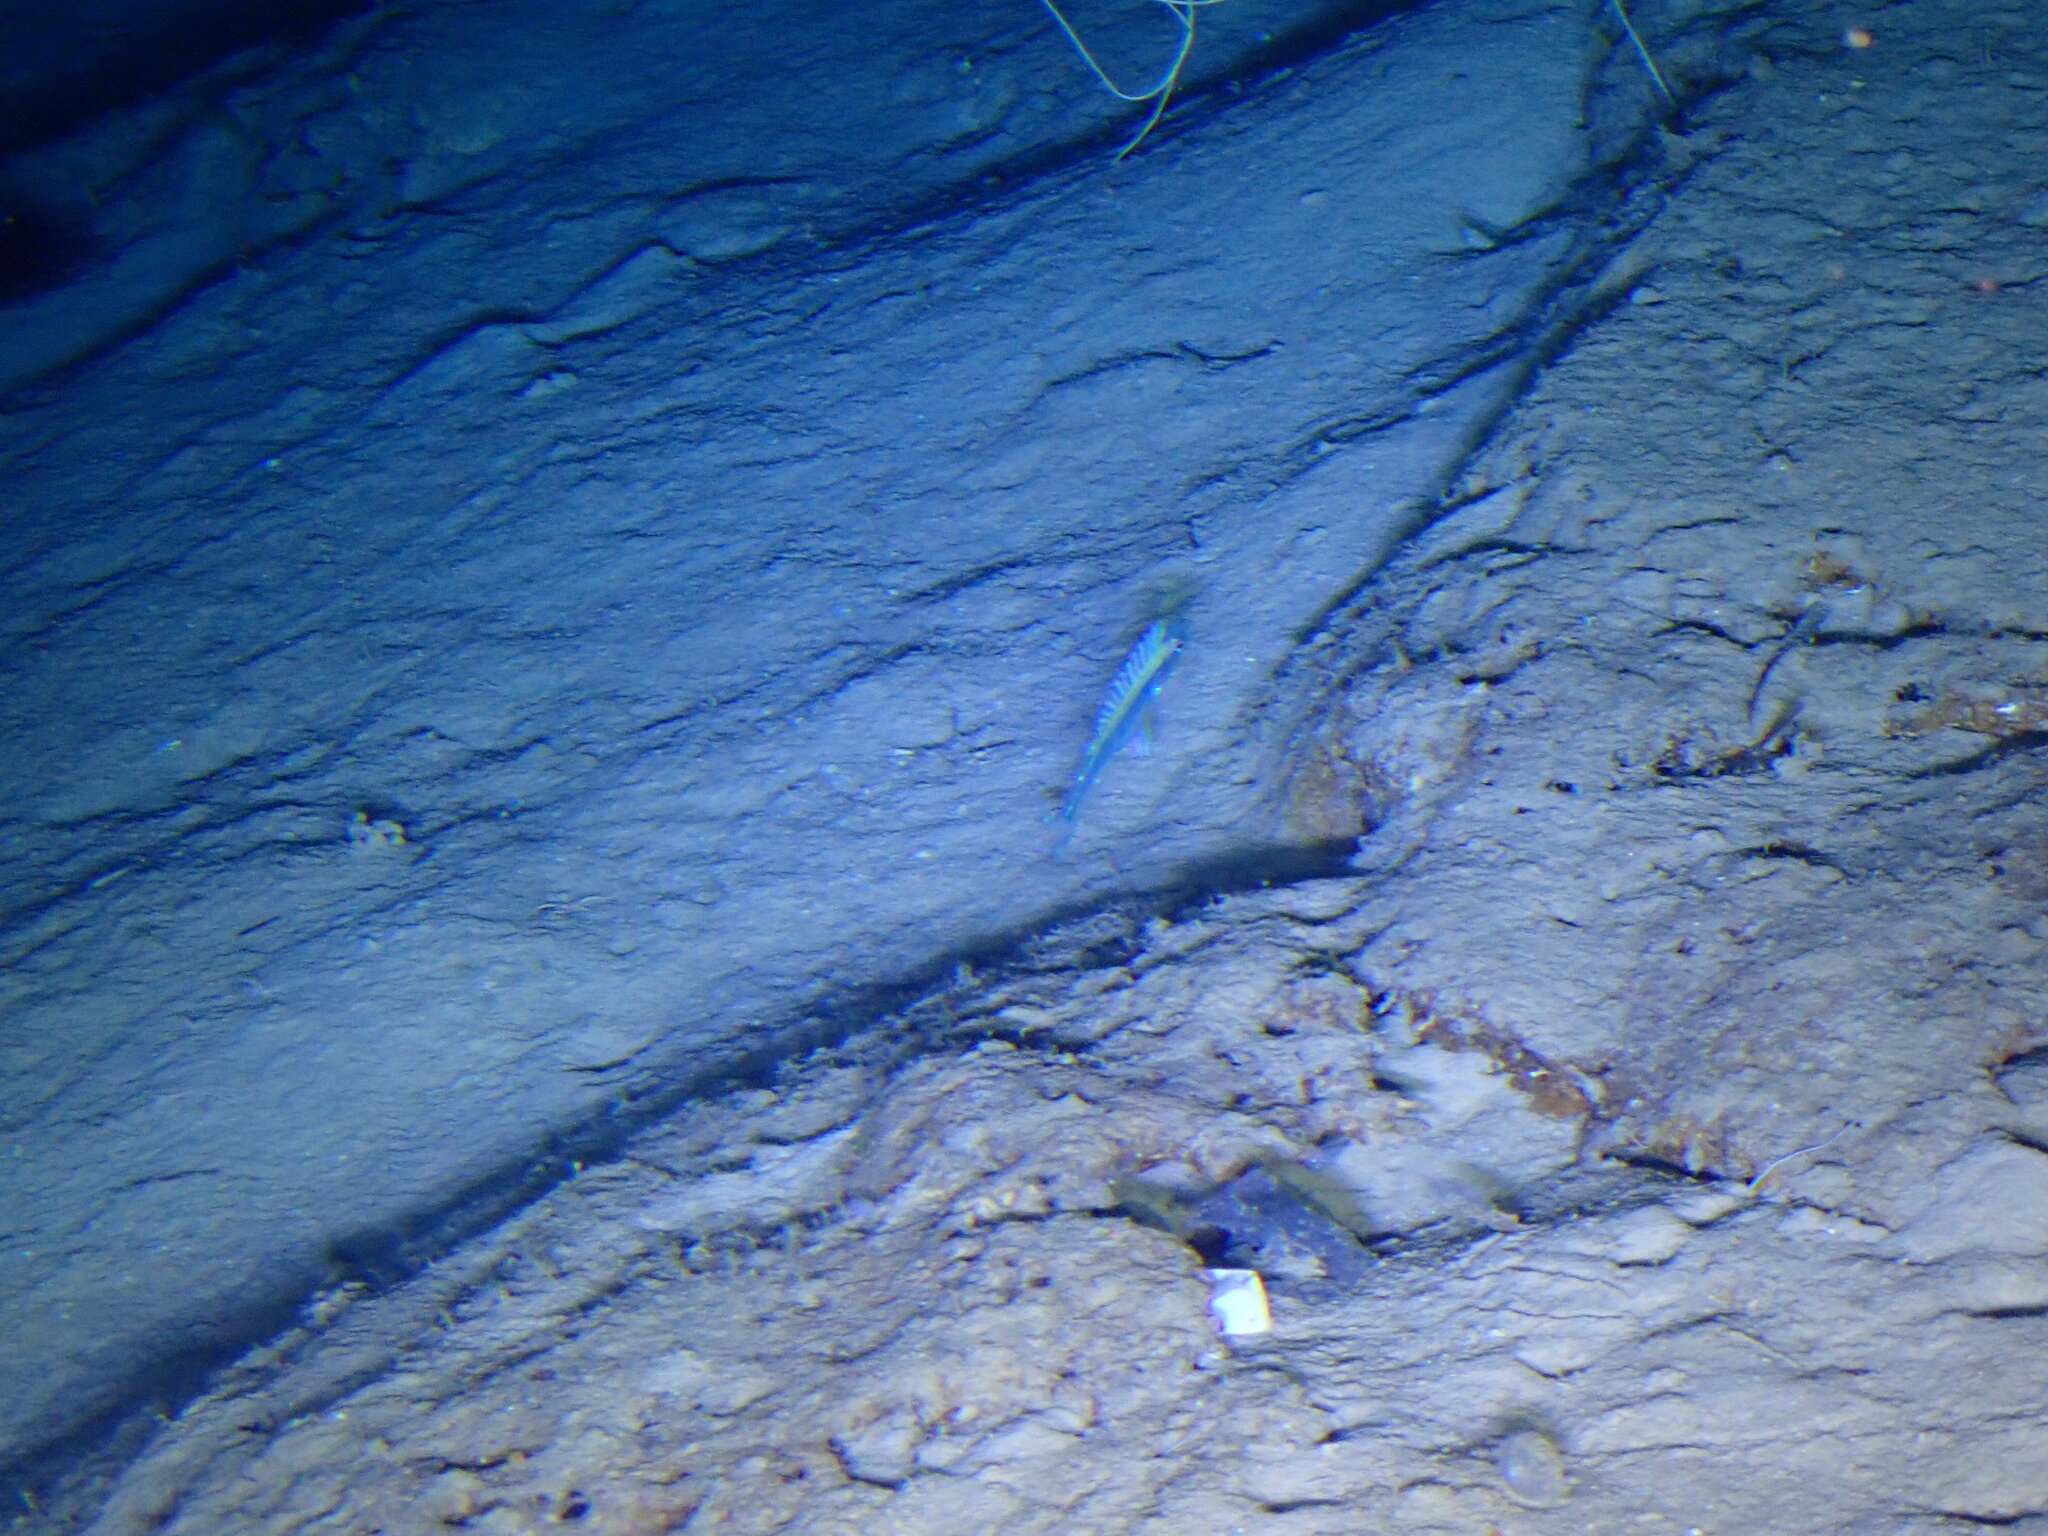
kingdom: Animalia
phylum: Chordata
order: Perciformes
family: Gempylidae
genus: Epinnula
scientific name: Epinnula magistralis
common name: Domine
